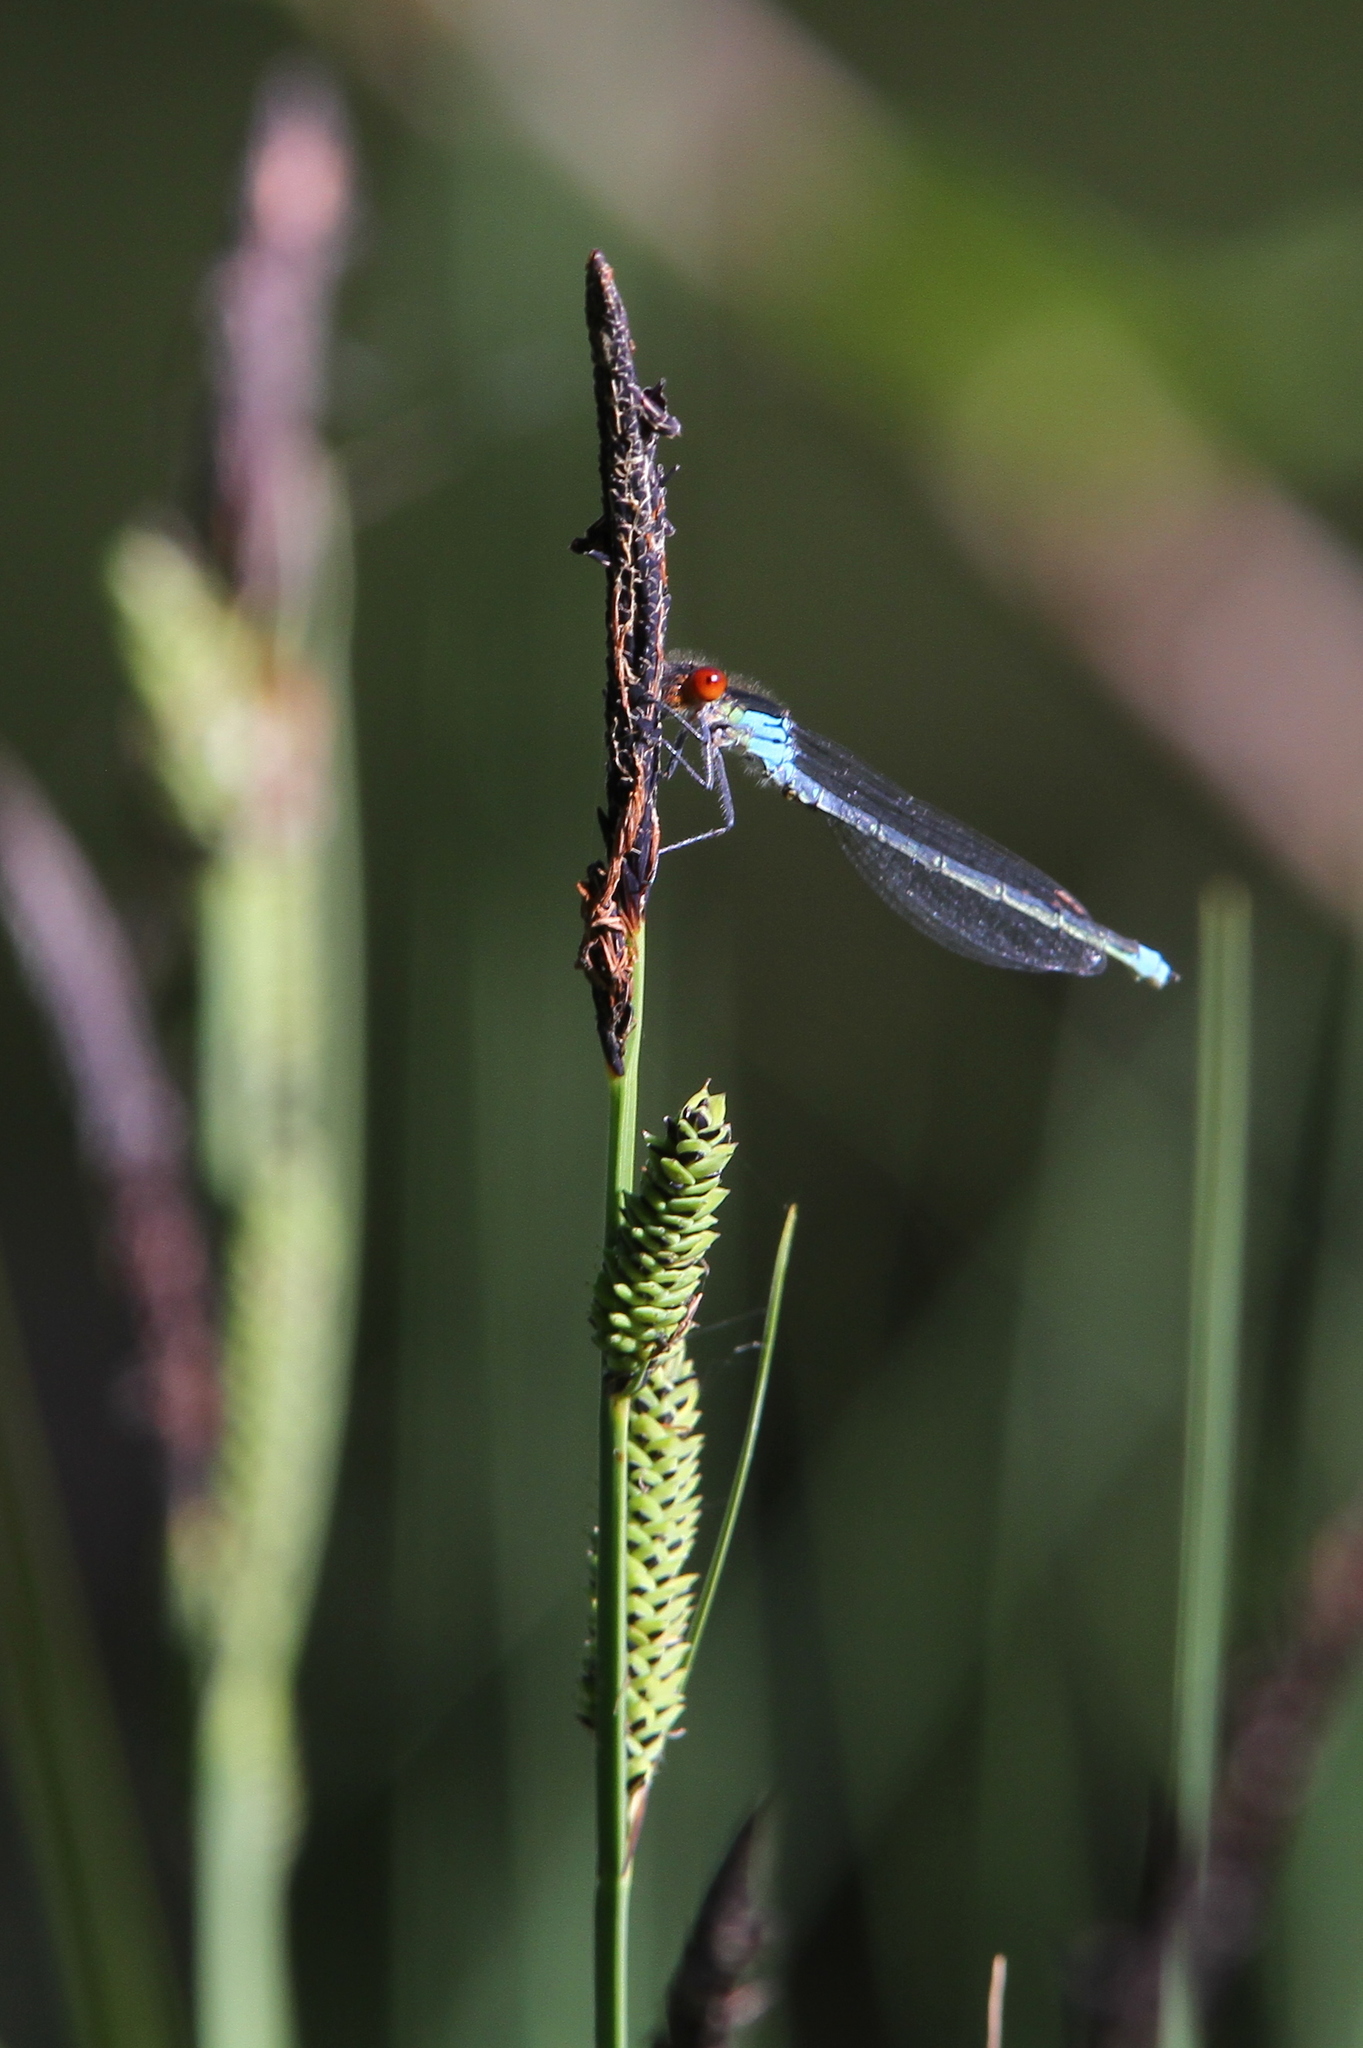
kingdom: Animalia
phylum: Arthropoda
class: Insecta
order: Odonata
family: Coenagrionidae
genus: Erythromma
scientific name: Erythromma najas
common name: Red-eyed damselfly
